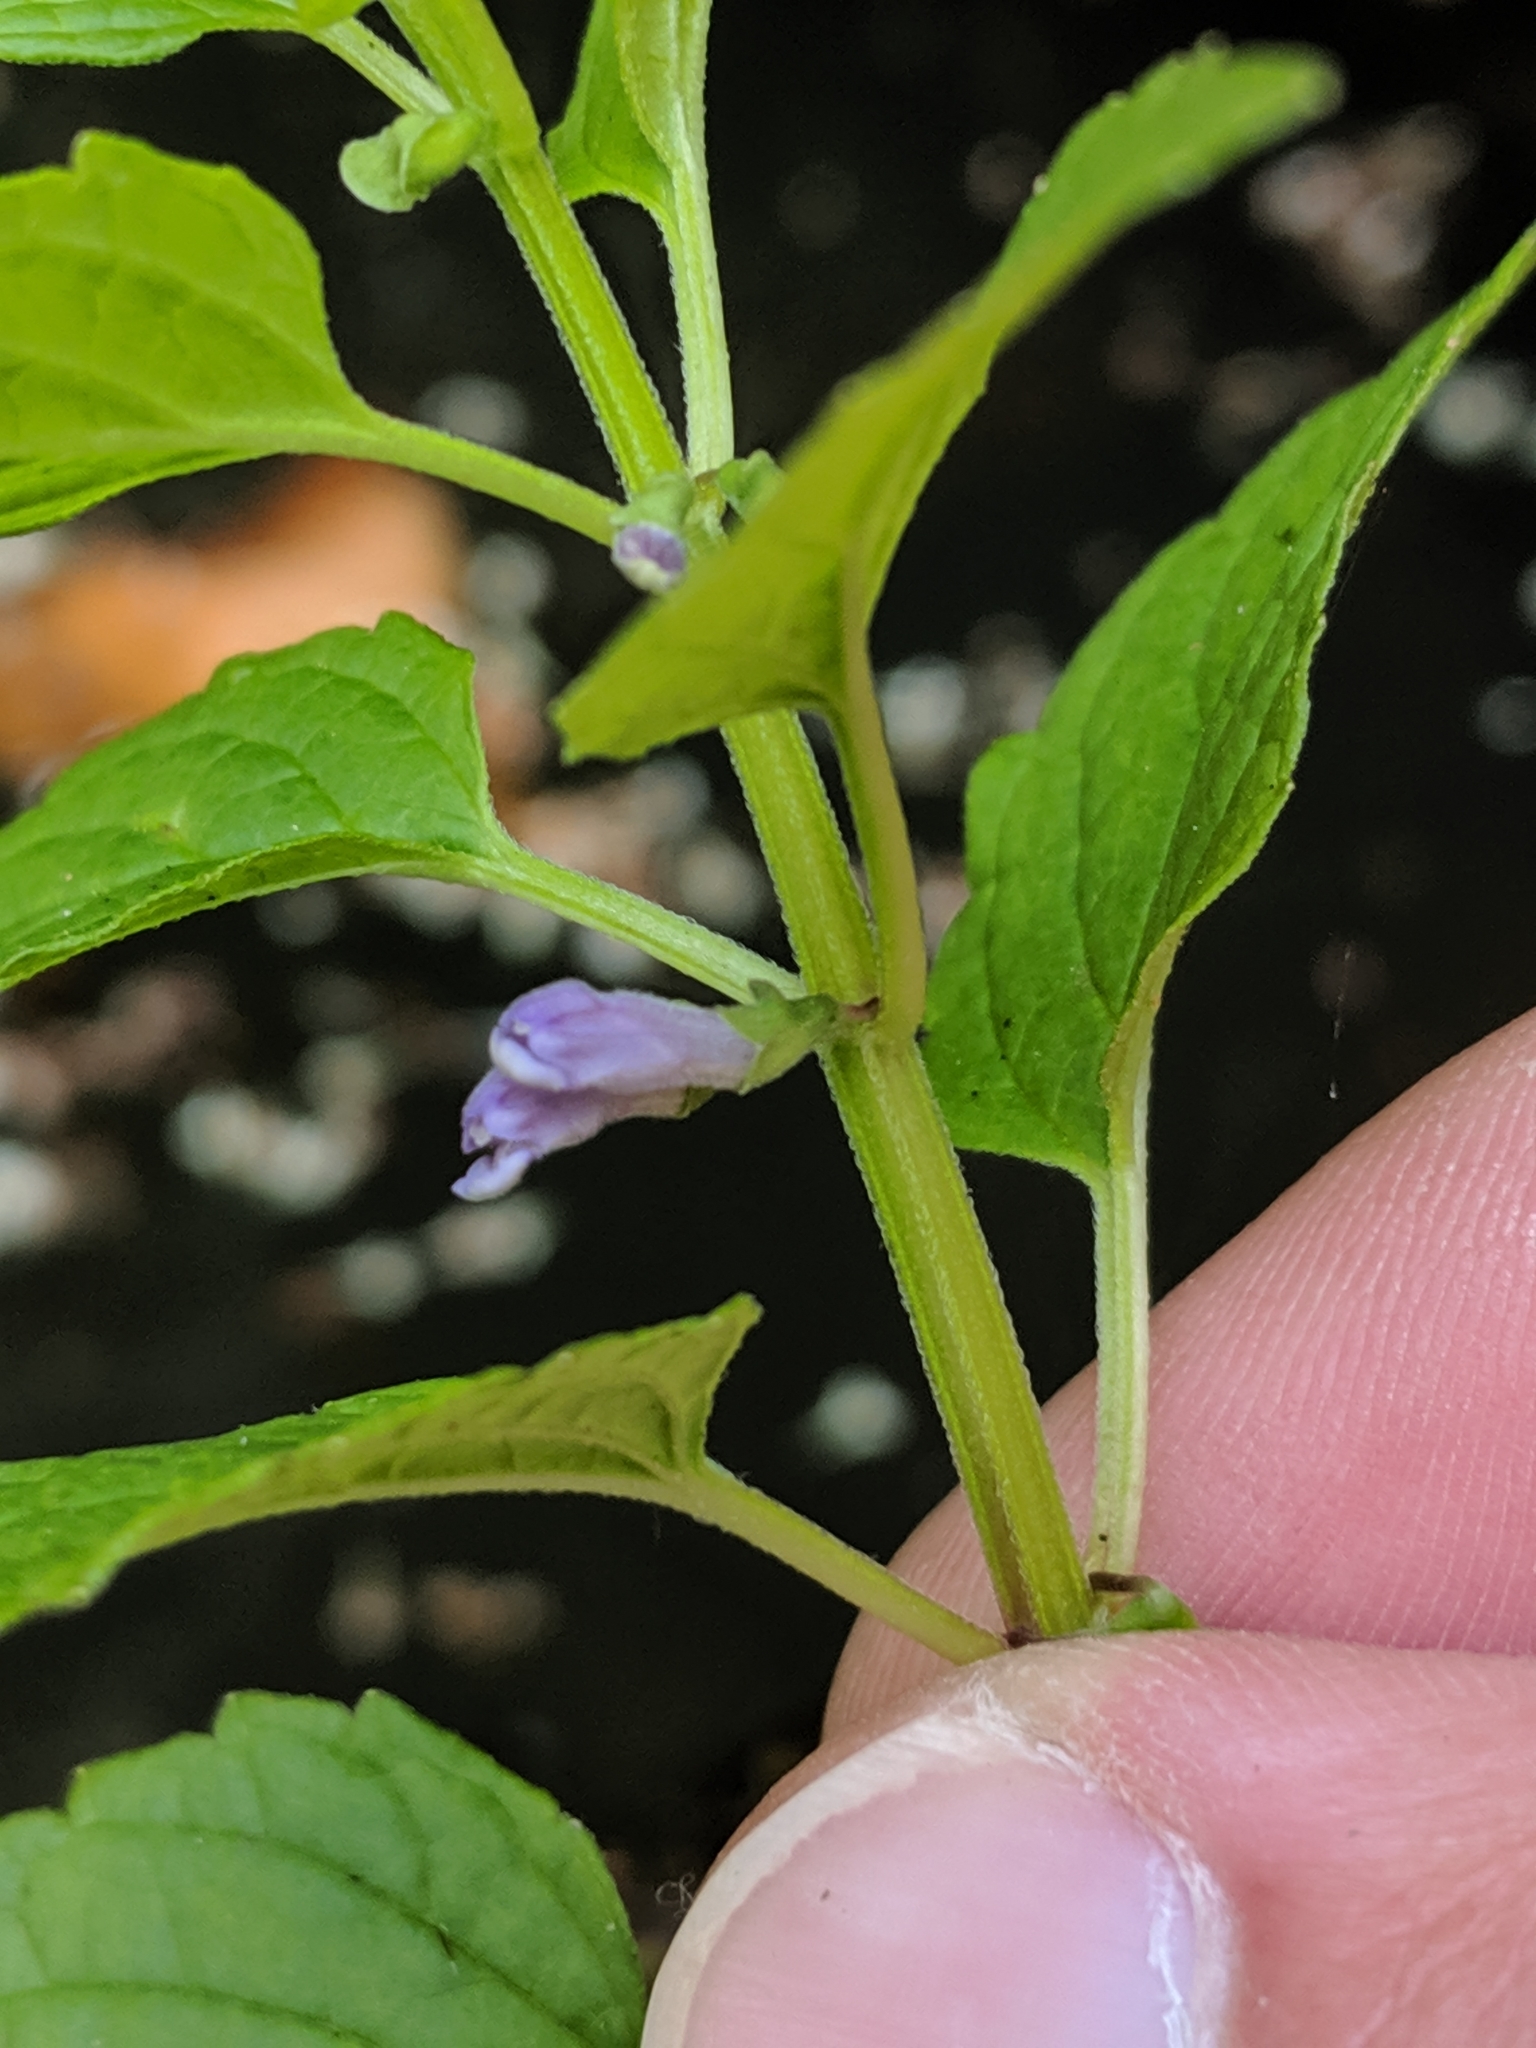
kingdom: Plantae
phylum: Tracheophyta
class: Magnoliopsida
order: Lamiales
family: Lamiaceae
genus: Scutellaria
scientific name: Scutellaria lateriflora
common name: Blue skullcap
